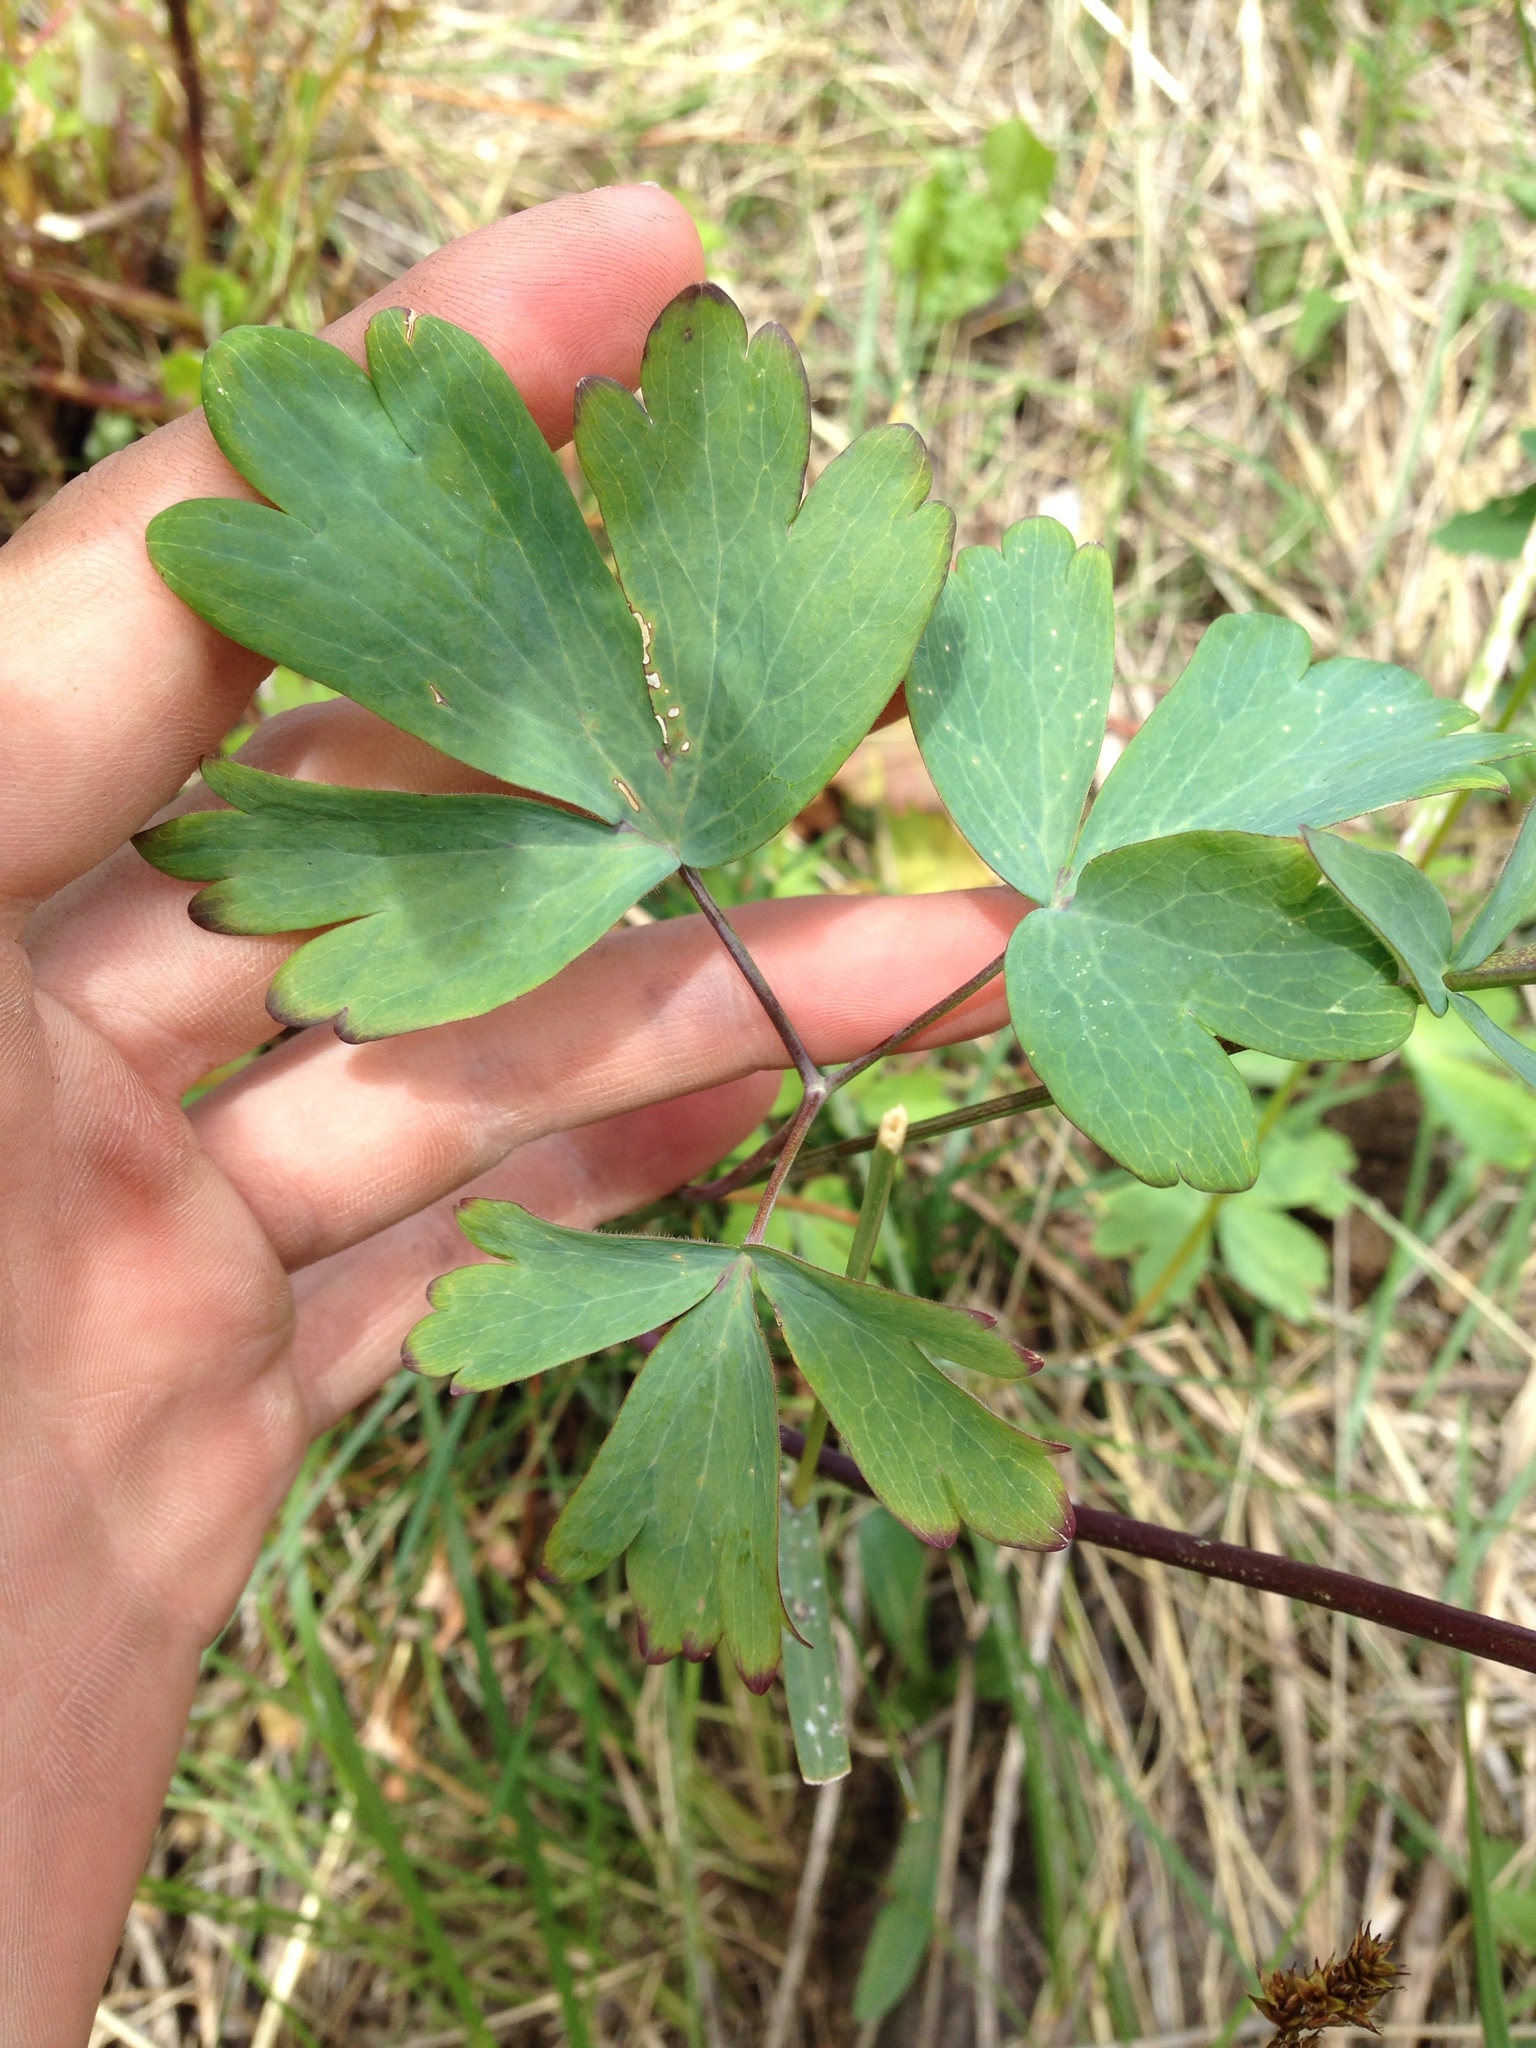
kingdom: Plantae
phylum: Tracheophyta
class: Magnoliopsida
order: Ranunculales
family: Ranunculaceae
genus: Aquilegia
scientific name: Aquilegia formosa
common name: Sitka columbine
